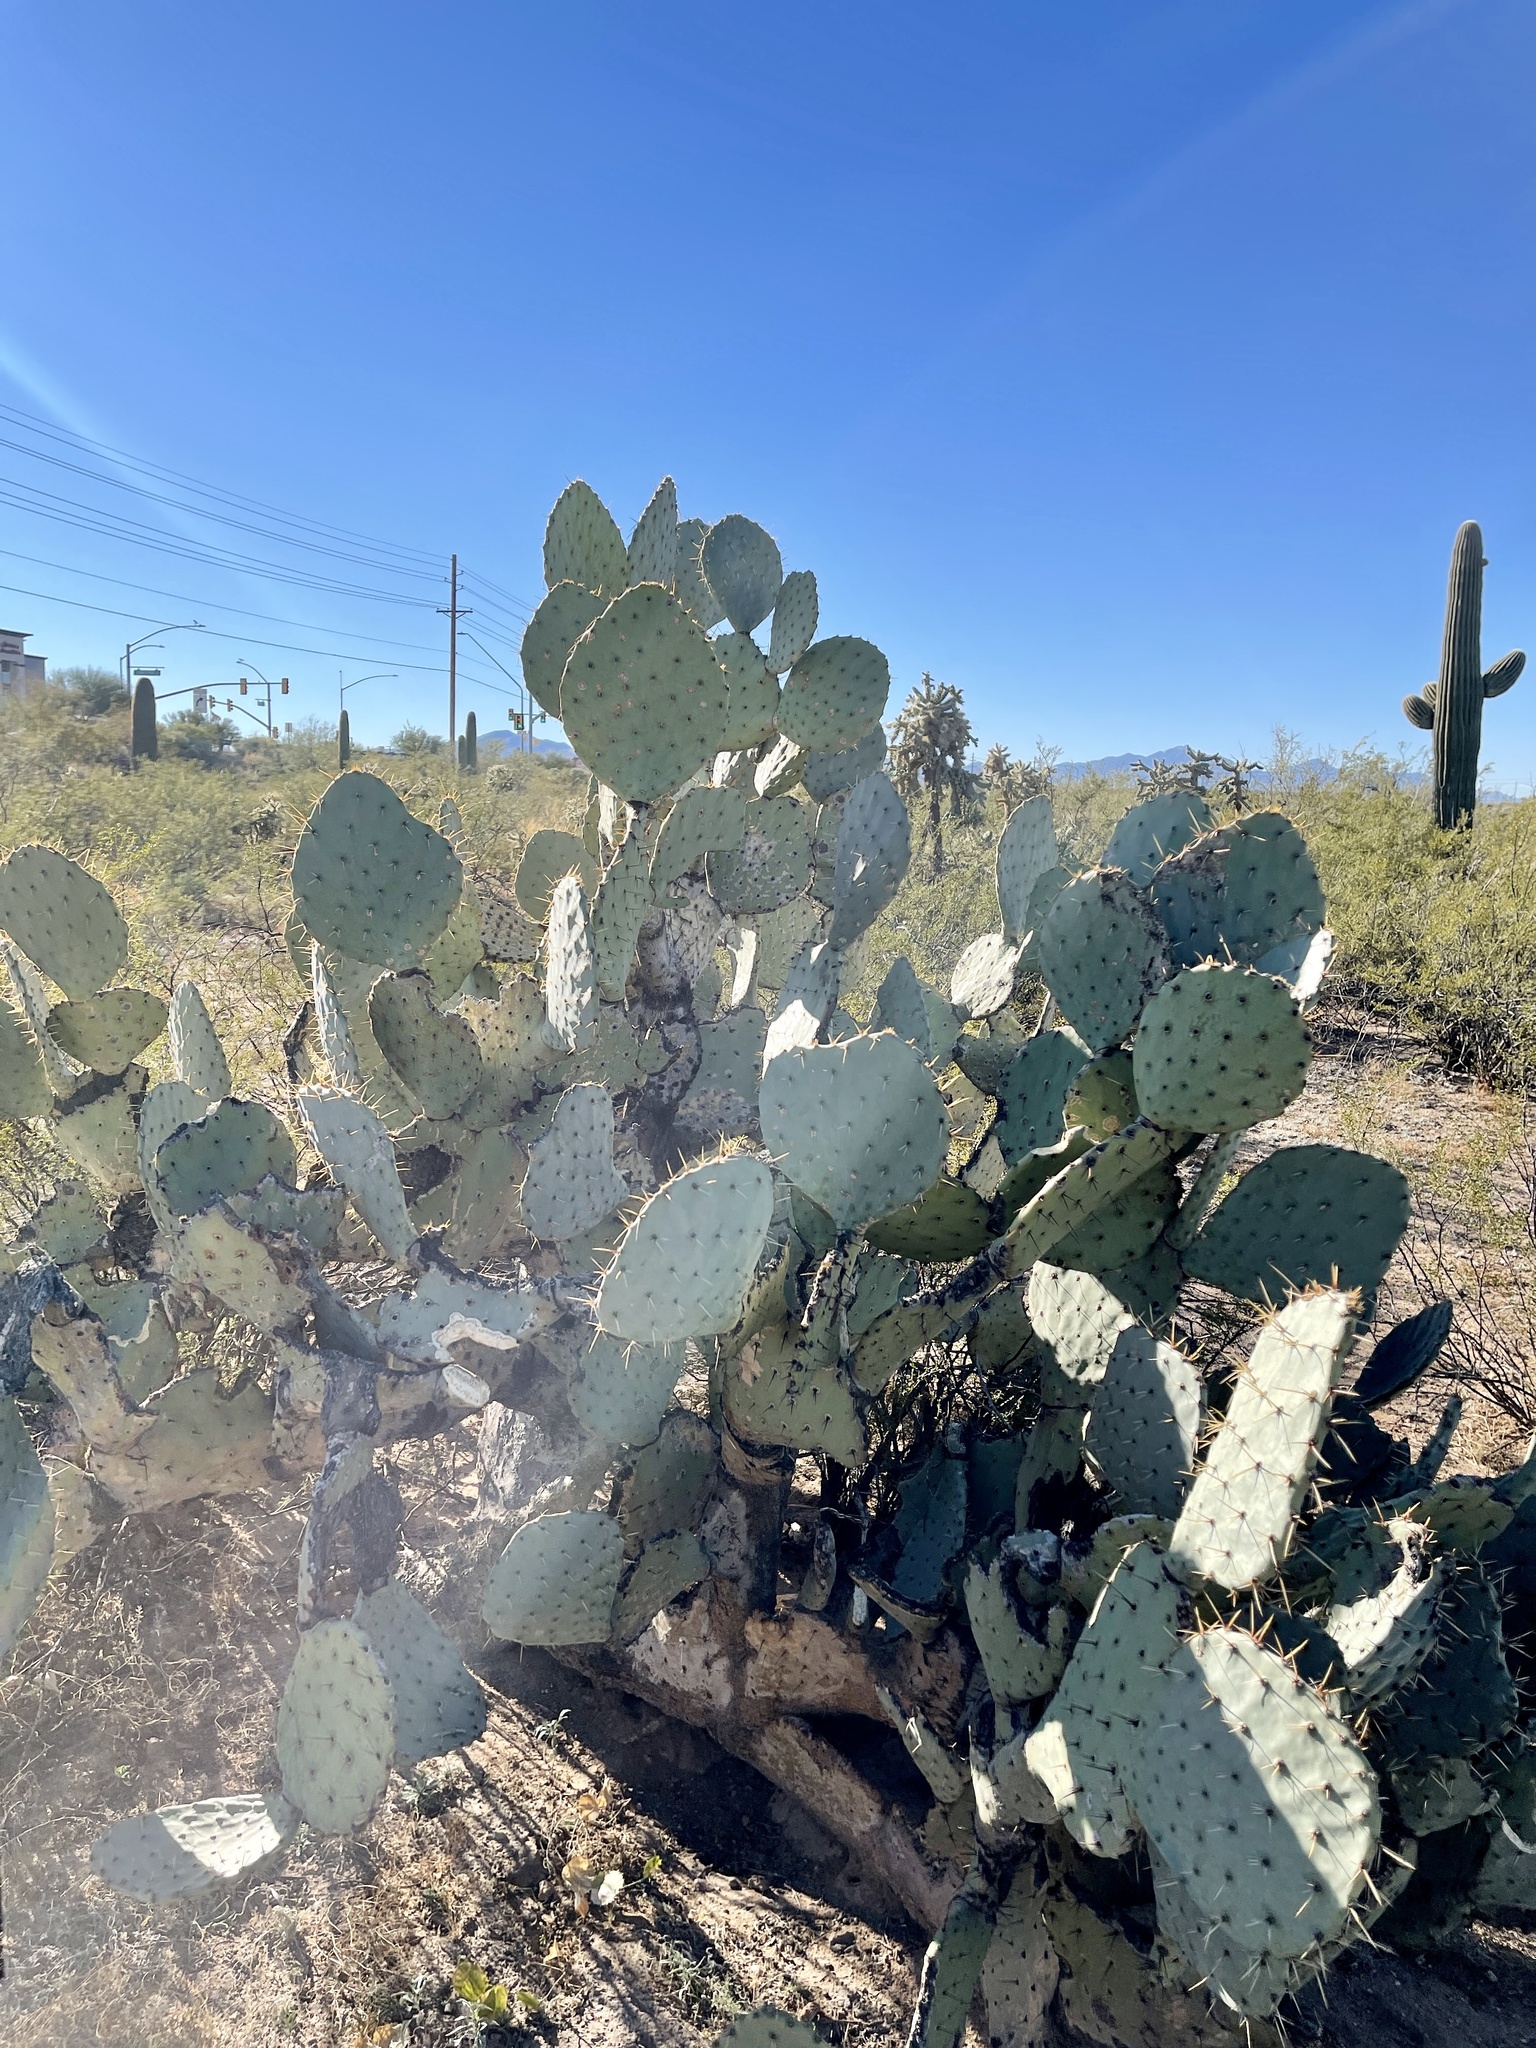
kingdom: Plantae
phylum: Tracheophyta
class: Magnoliopsida
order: Caryophyllales
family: Cactaceae
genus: Opuntia
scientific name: Opuntia engelmannii
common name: Cactus-apple
